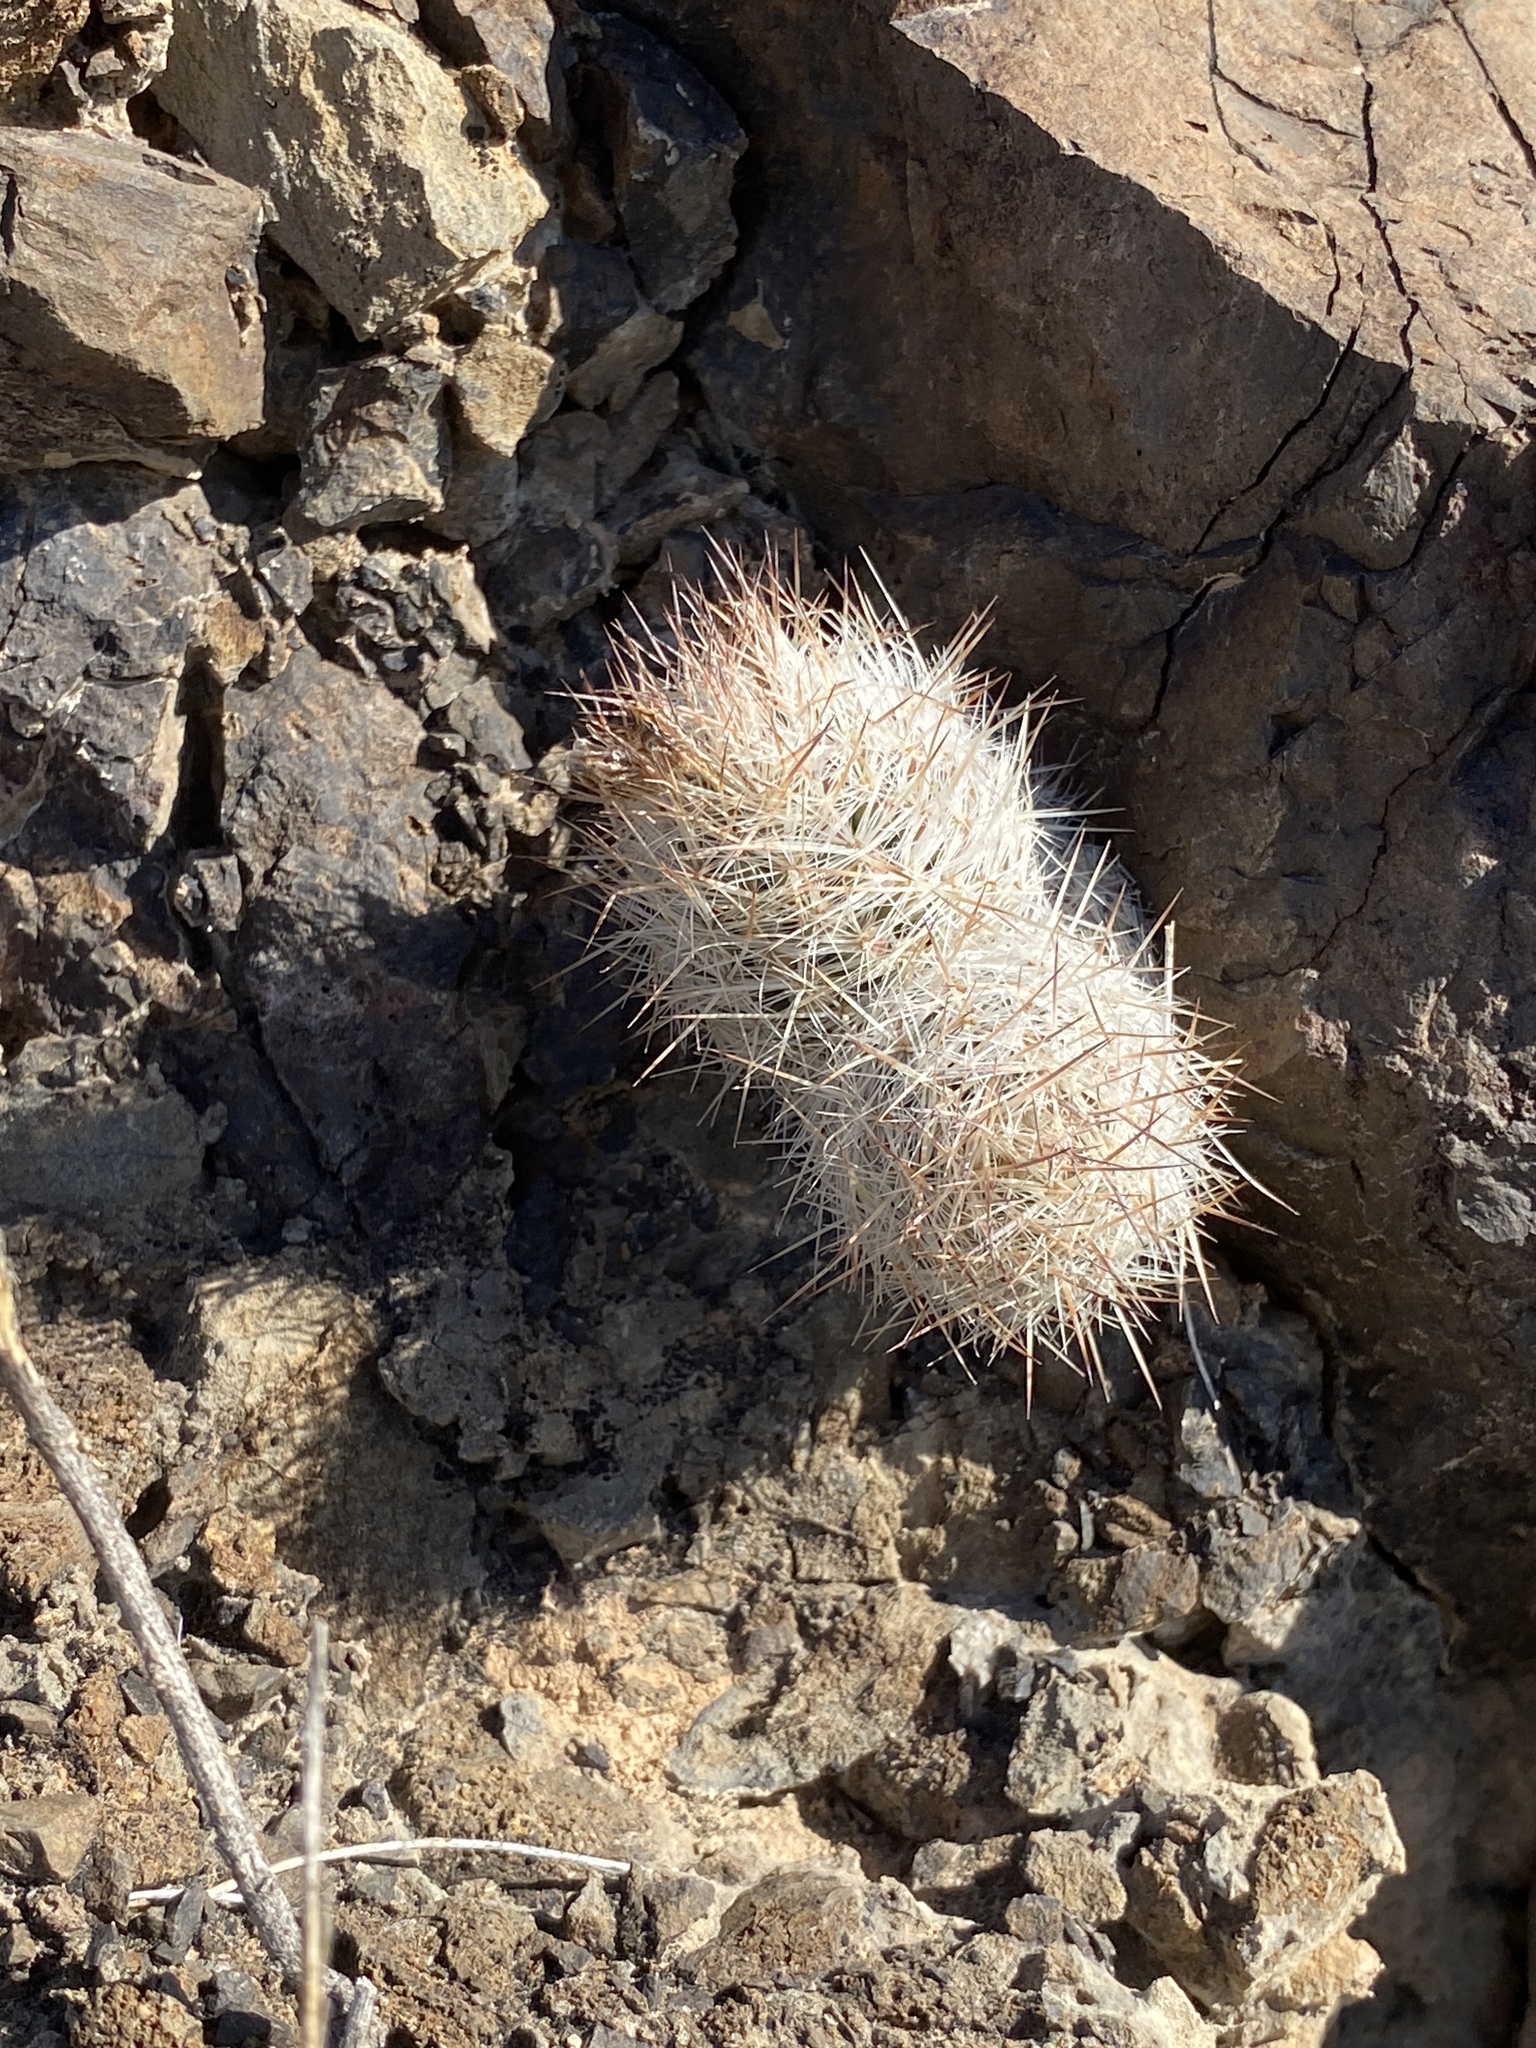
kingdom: Plantae
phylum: Tracheophyta
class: Magnoliopsida
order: Caryophyllales
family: Cactaceae
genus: Pelecyphora
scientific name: Pelecyphora tuberculosa
